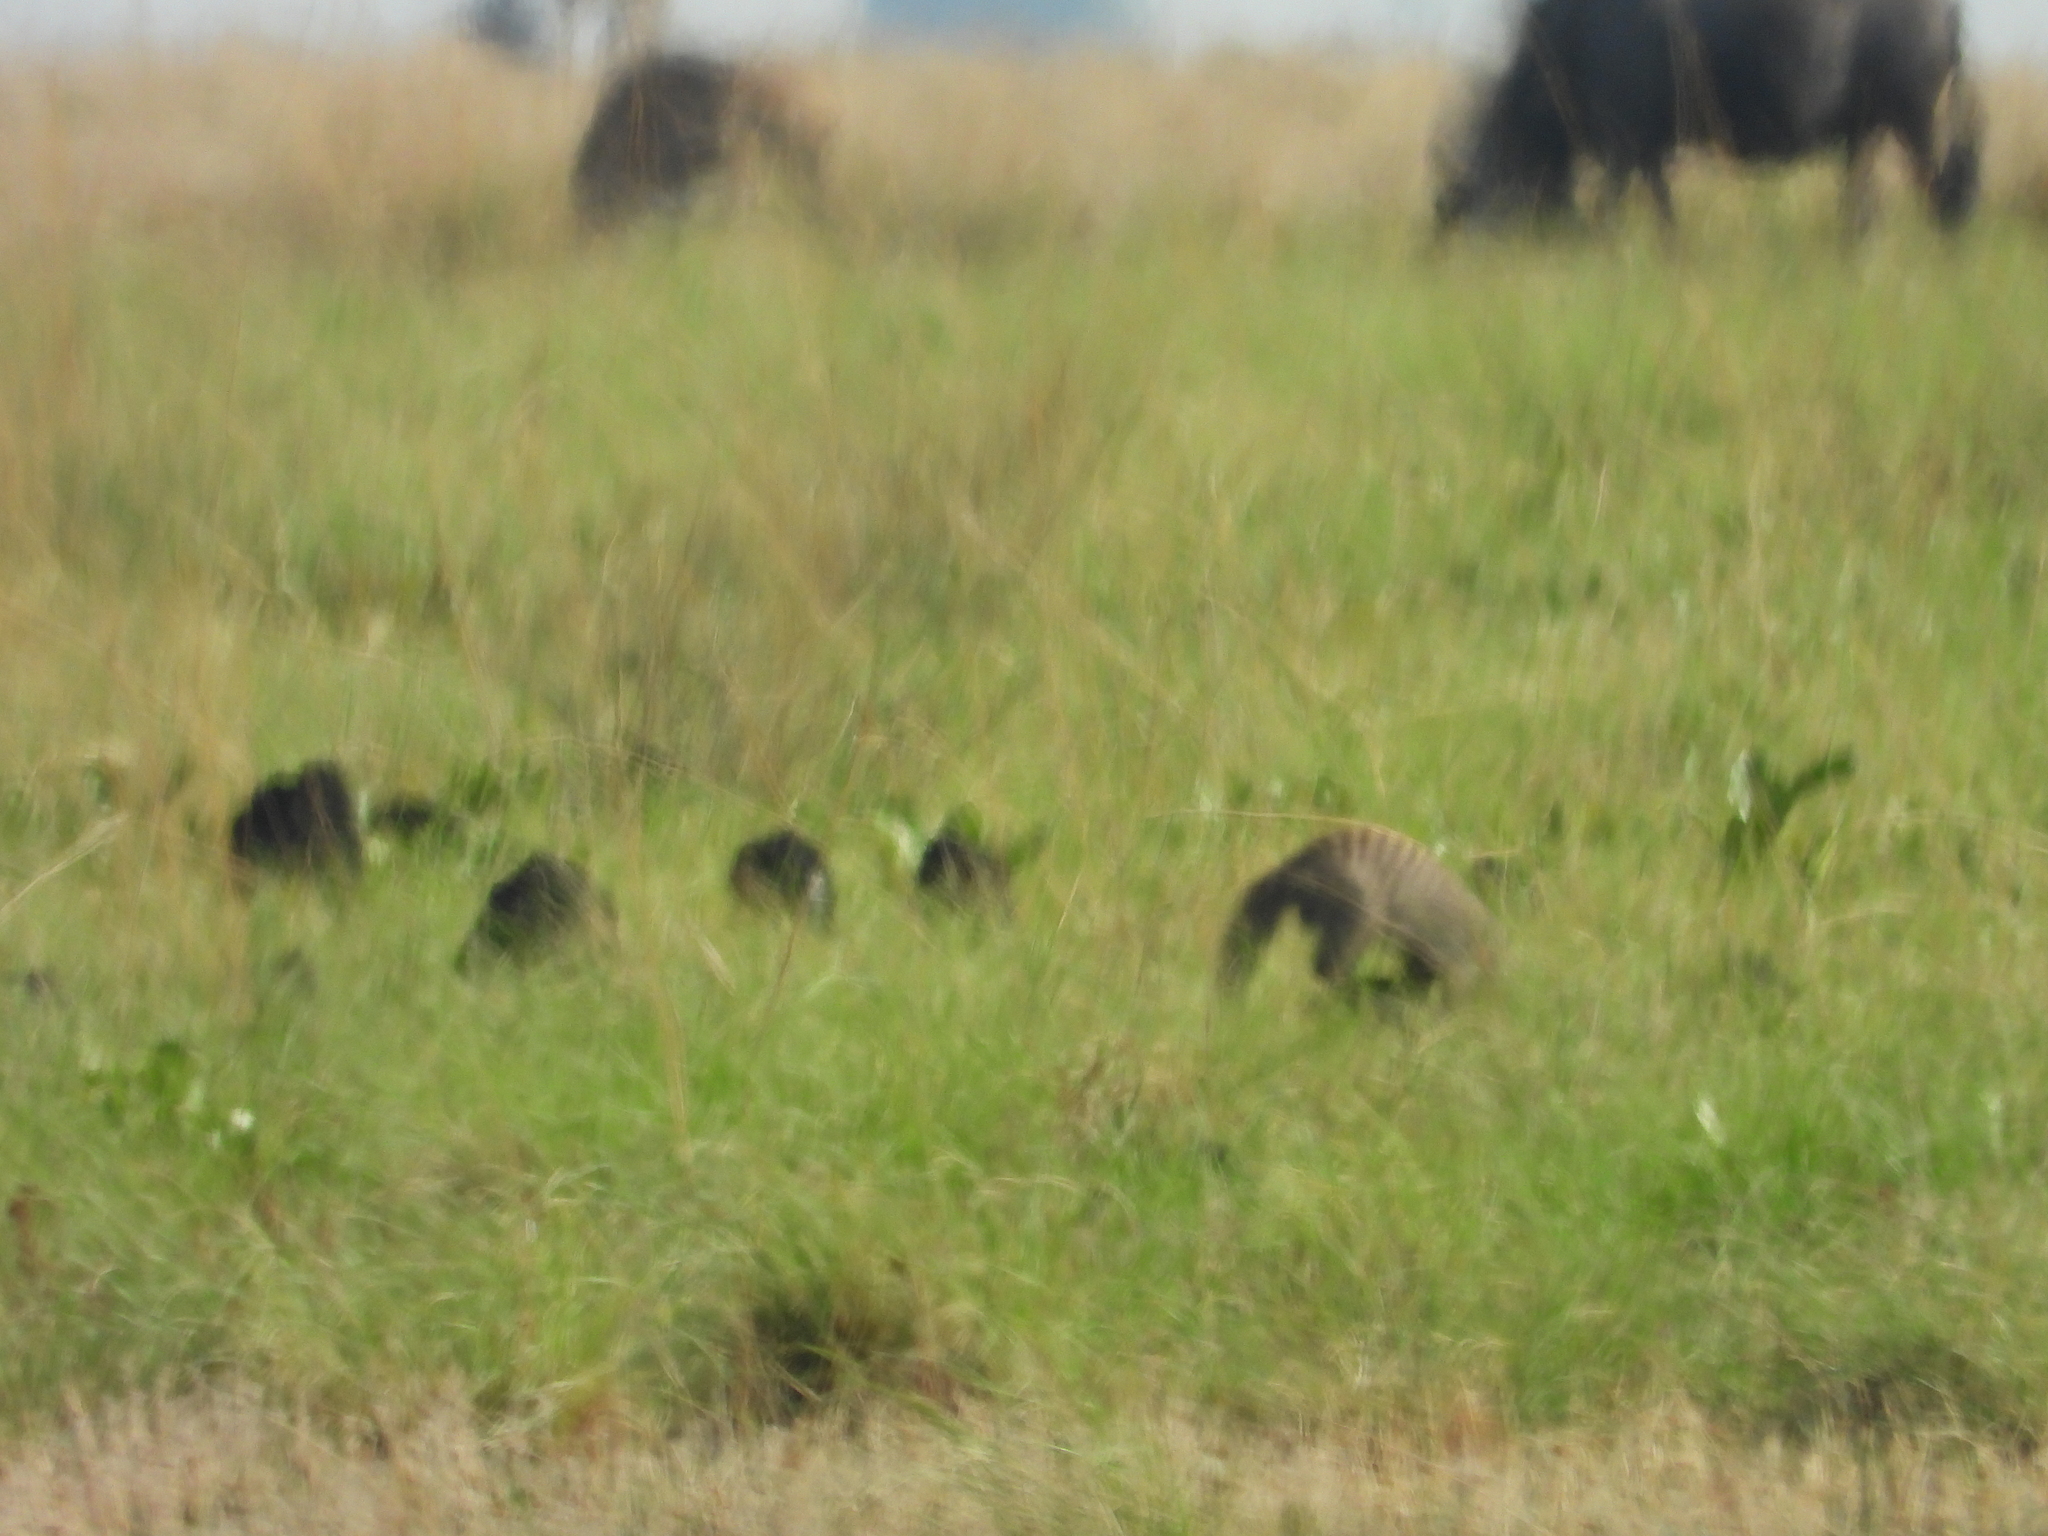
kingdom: Animalia
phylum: Chordata
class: Mammalia
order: Carnivora
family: Herpestidae
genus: Mungos
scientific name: Mungos mungo
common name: Banded mongoose
